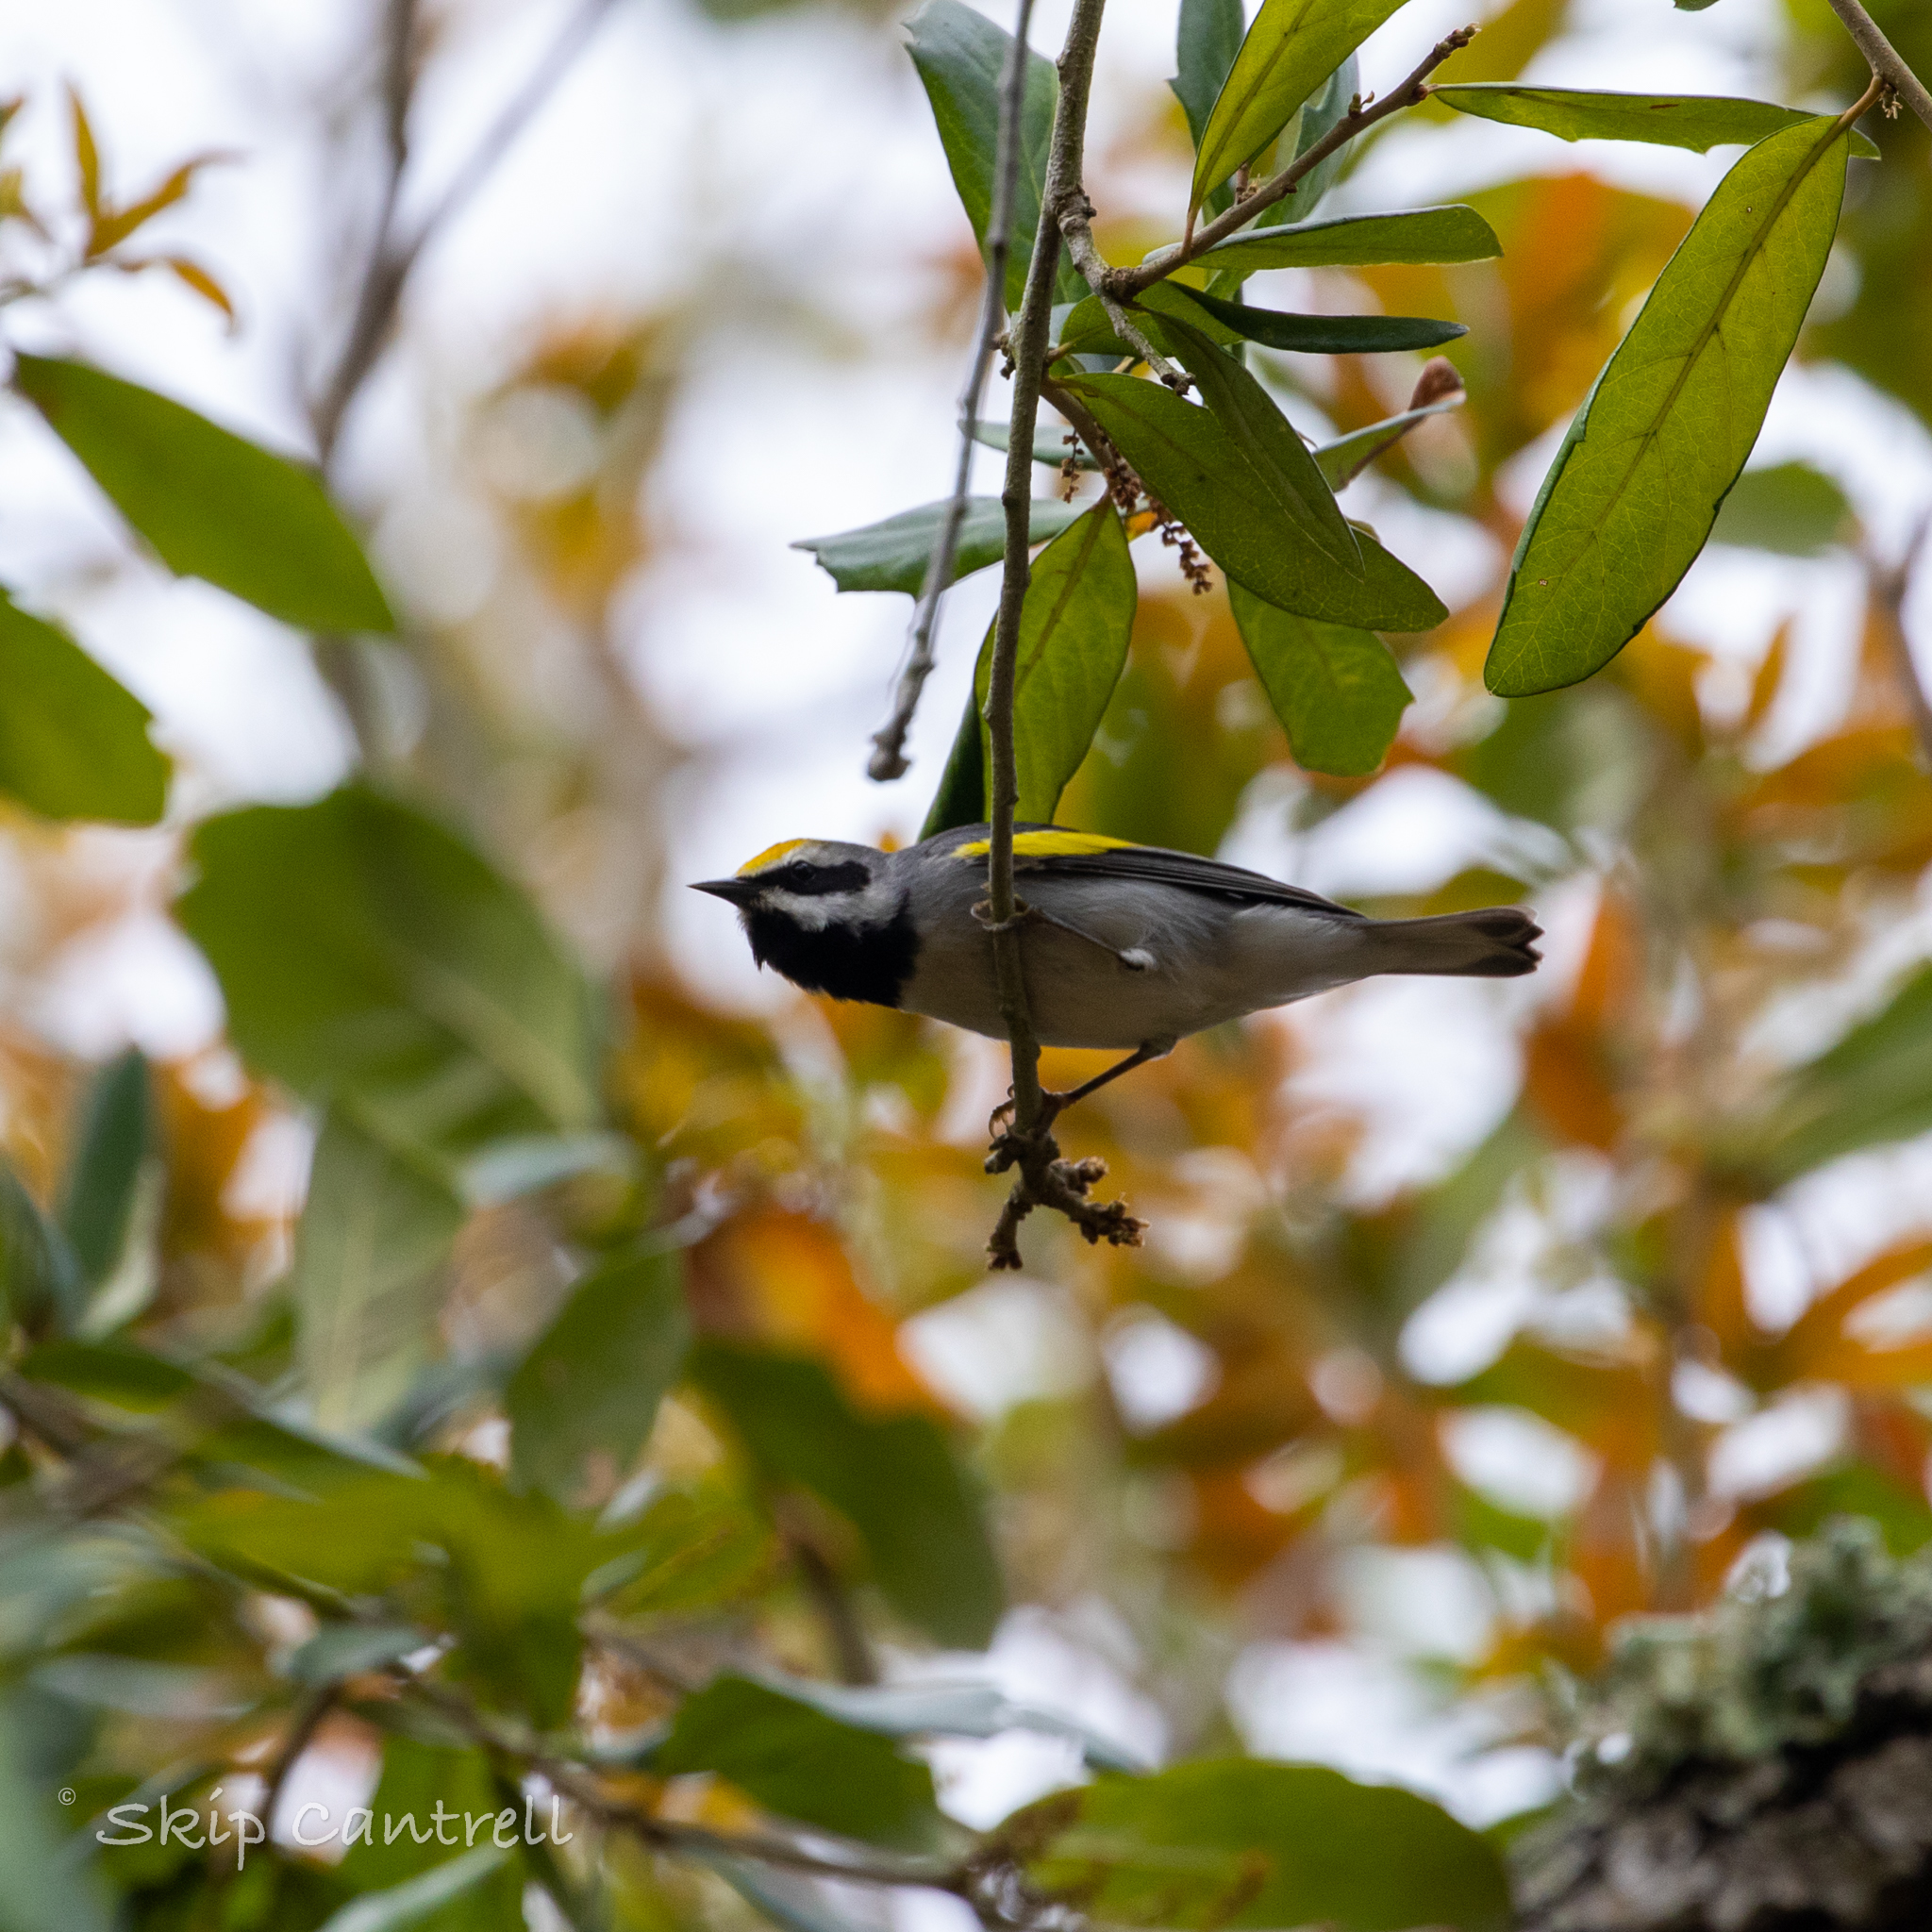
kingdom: Animalia
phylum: Chordata
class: Aves
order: Passeriformes
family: Parulidae
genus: Vermivora
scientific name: Vermivora chrysoptera
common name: Golden-winged warbler
